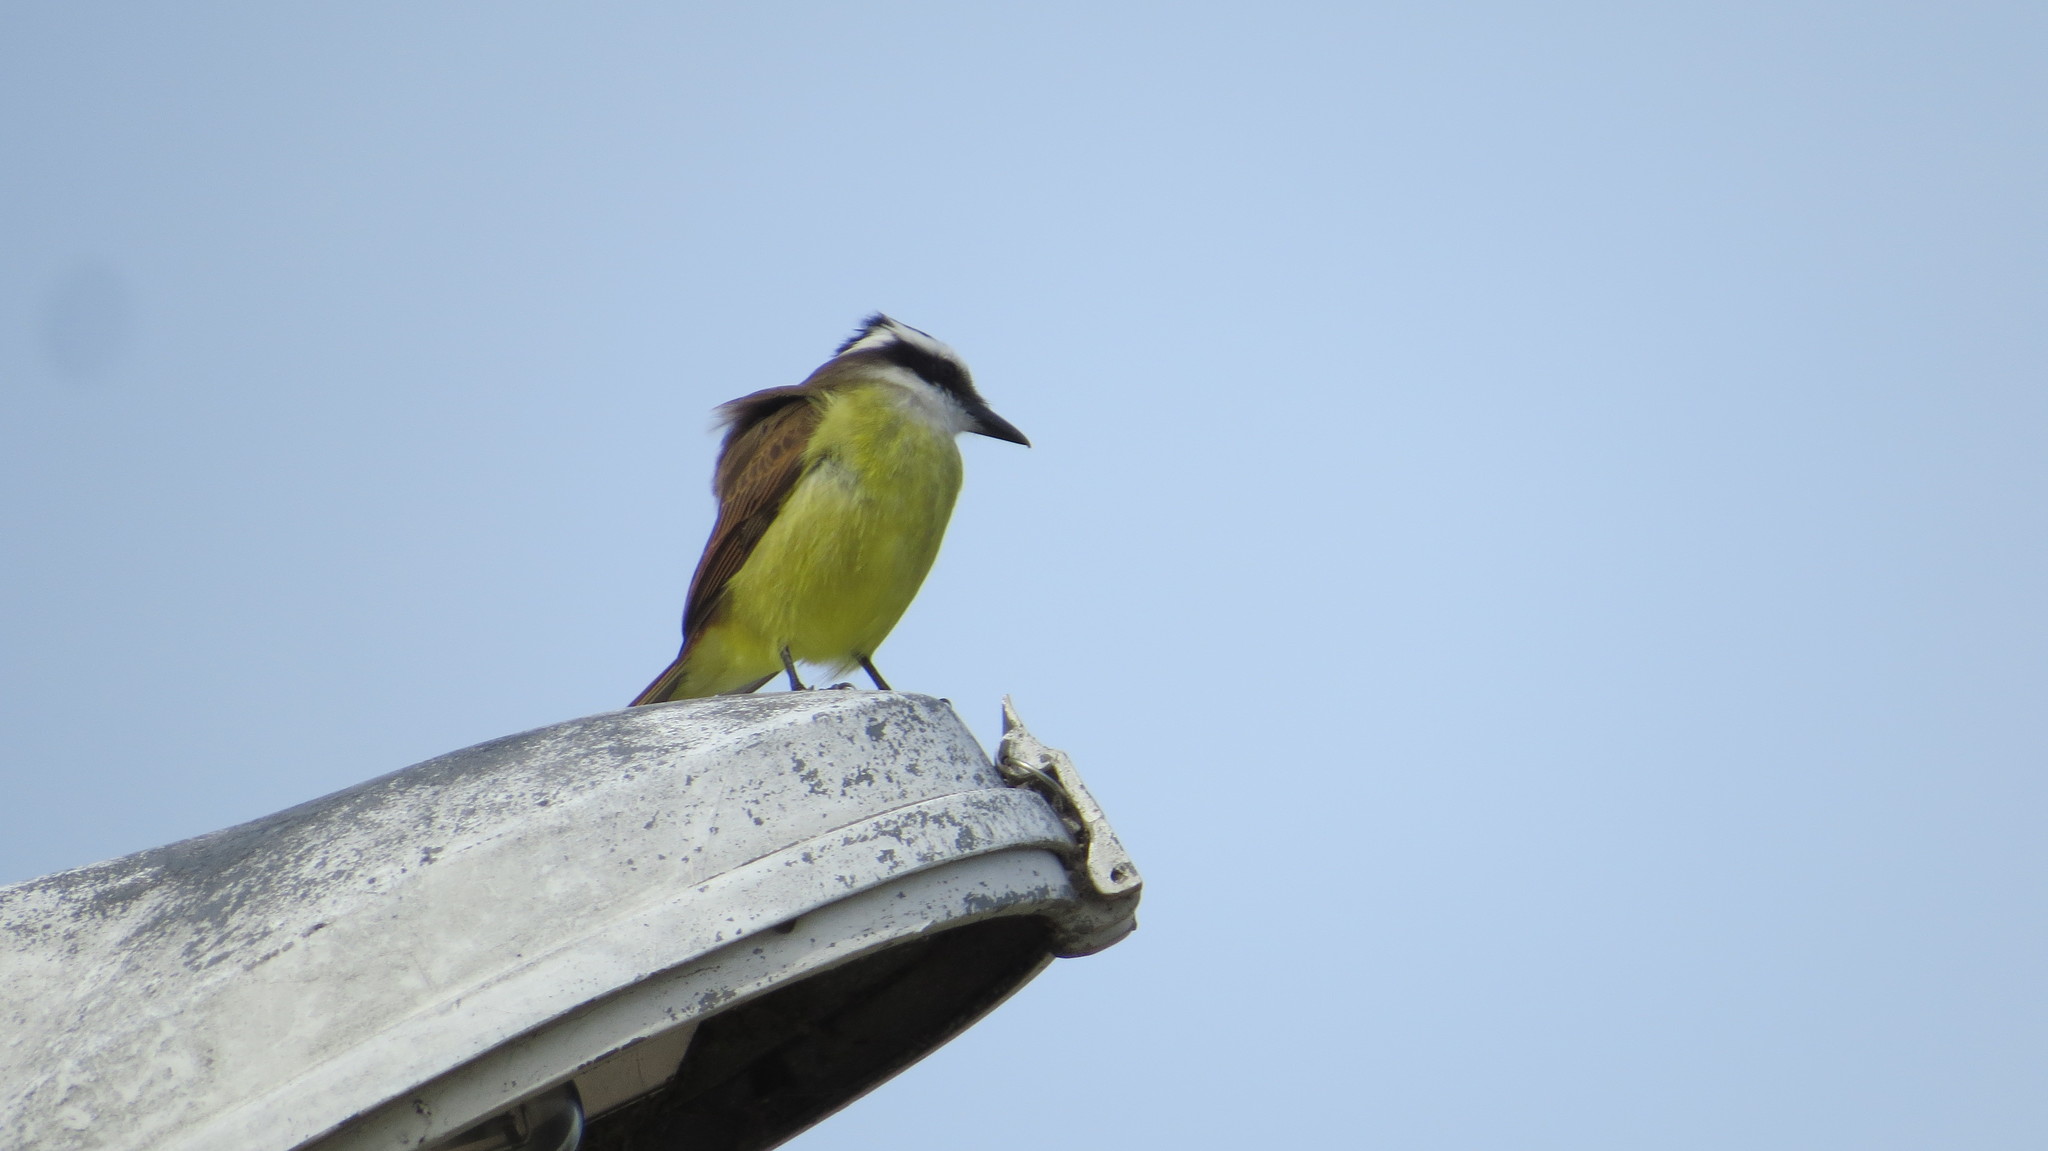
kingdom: Animalia
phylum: Chordata
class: Aves
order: Passeriformes
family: Tyrannidae
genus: Pitangus
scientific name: Pitangus sulphuratus
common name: Great kiskadee
